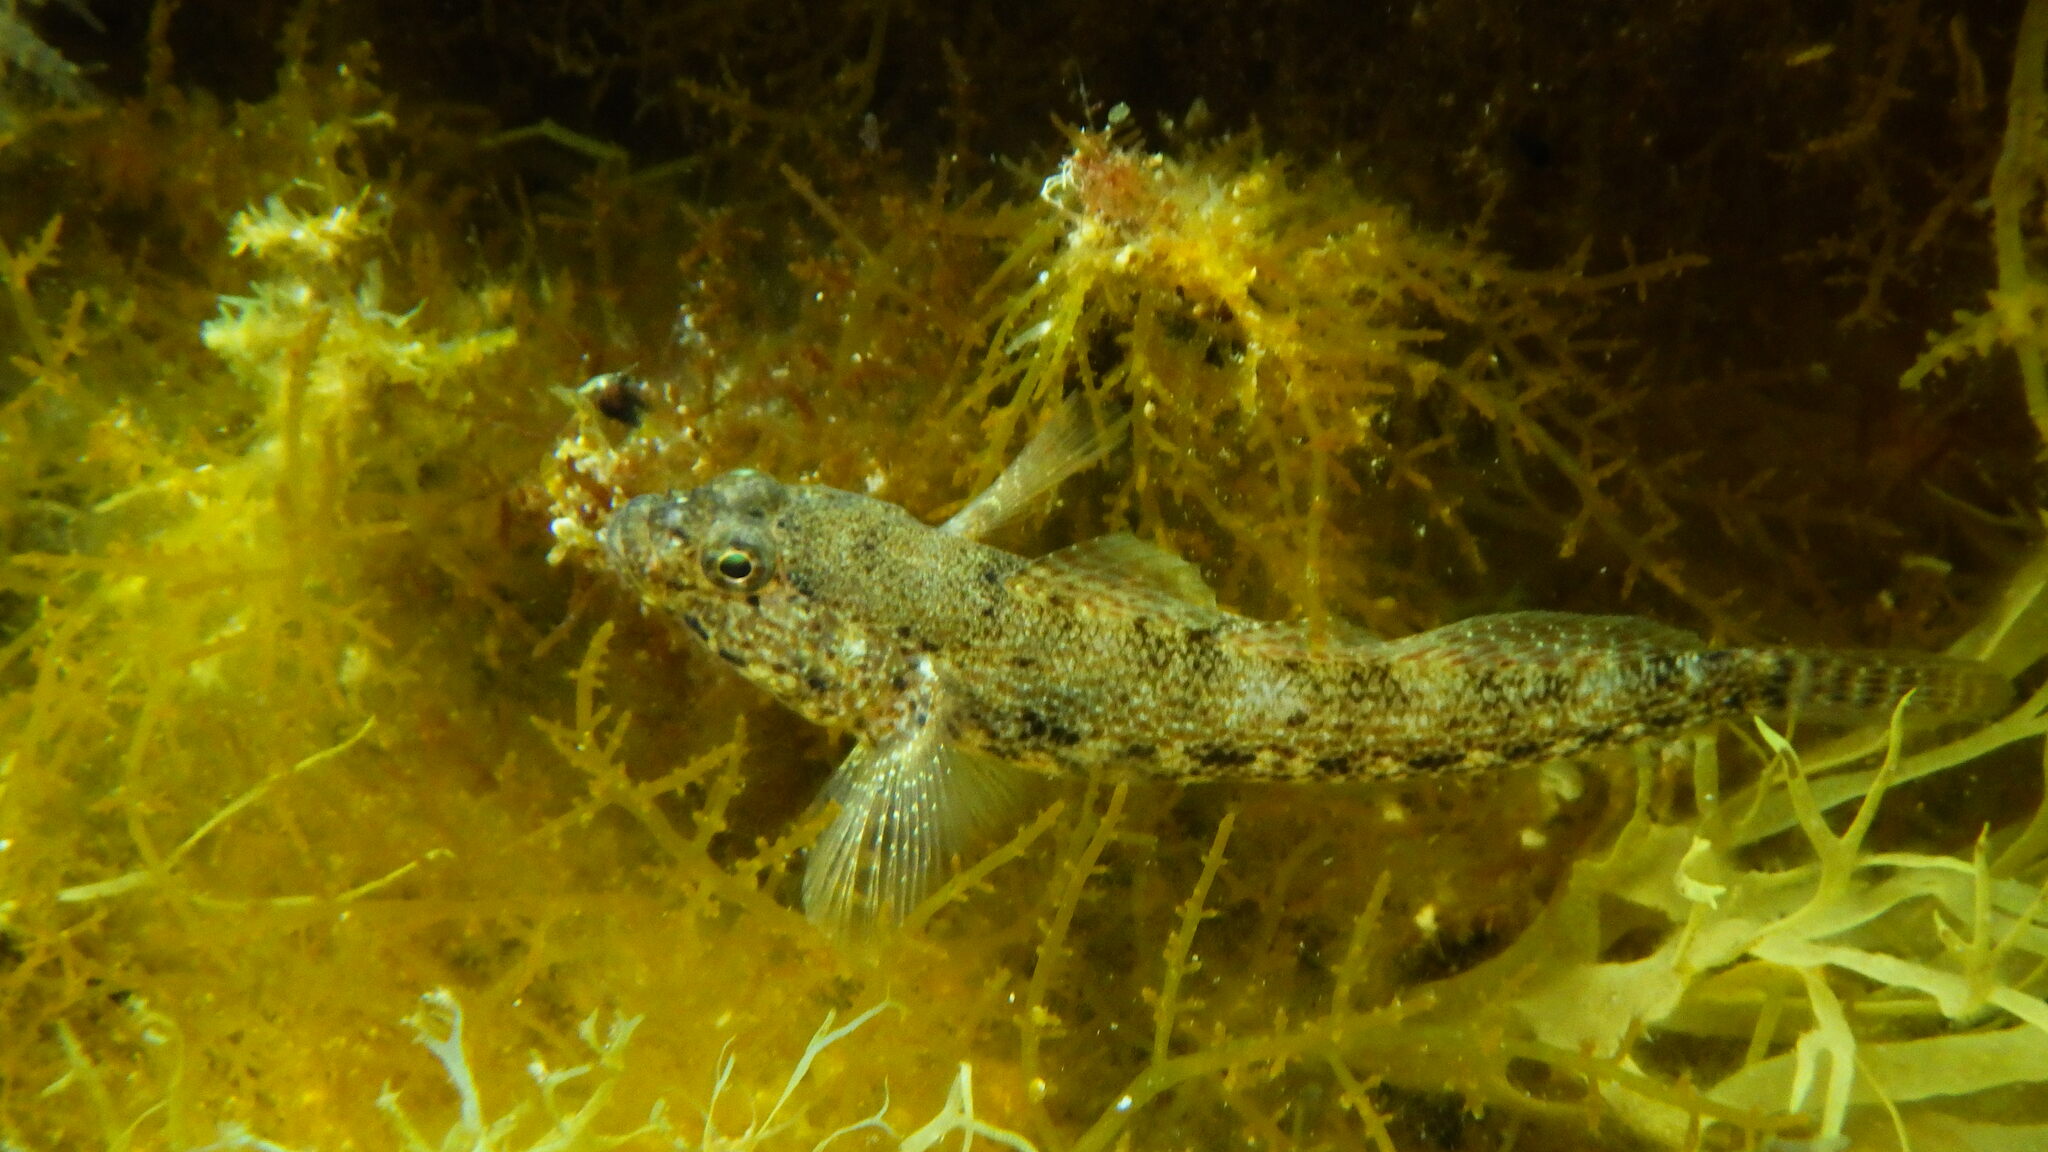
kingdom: Animalia
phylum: Chordata
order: Perciformes
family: Gobiidae
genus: Gobius
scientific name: Gobius incognitus
